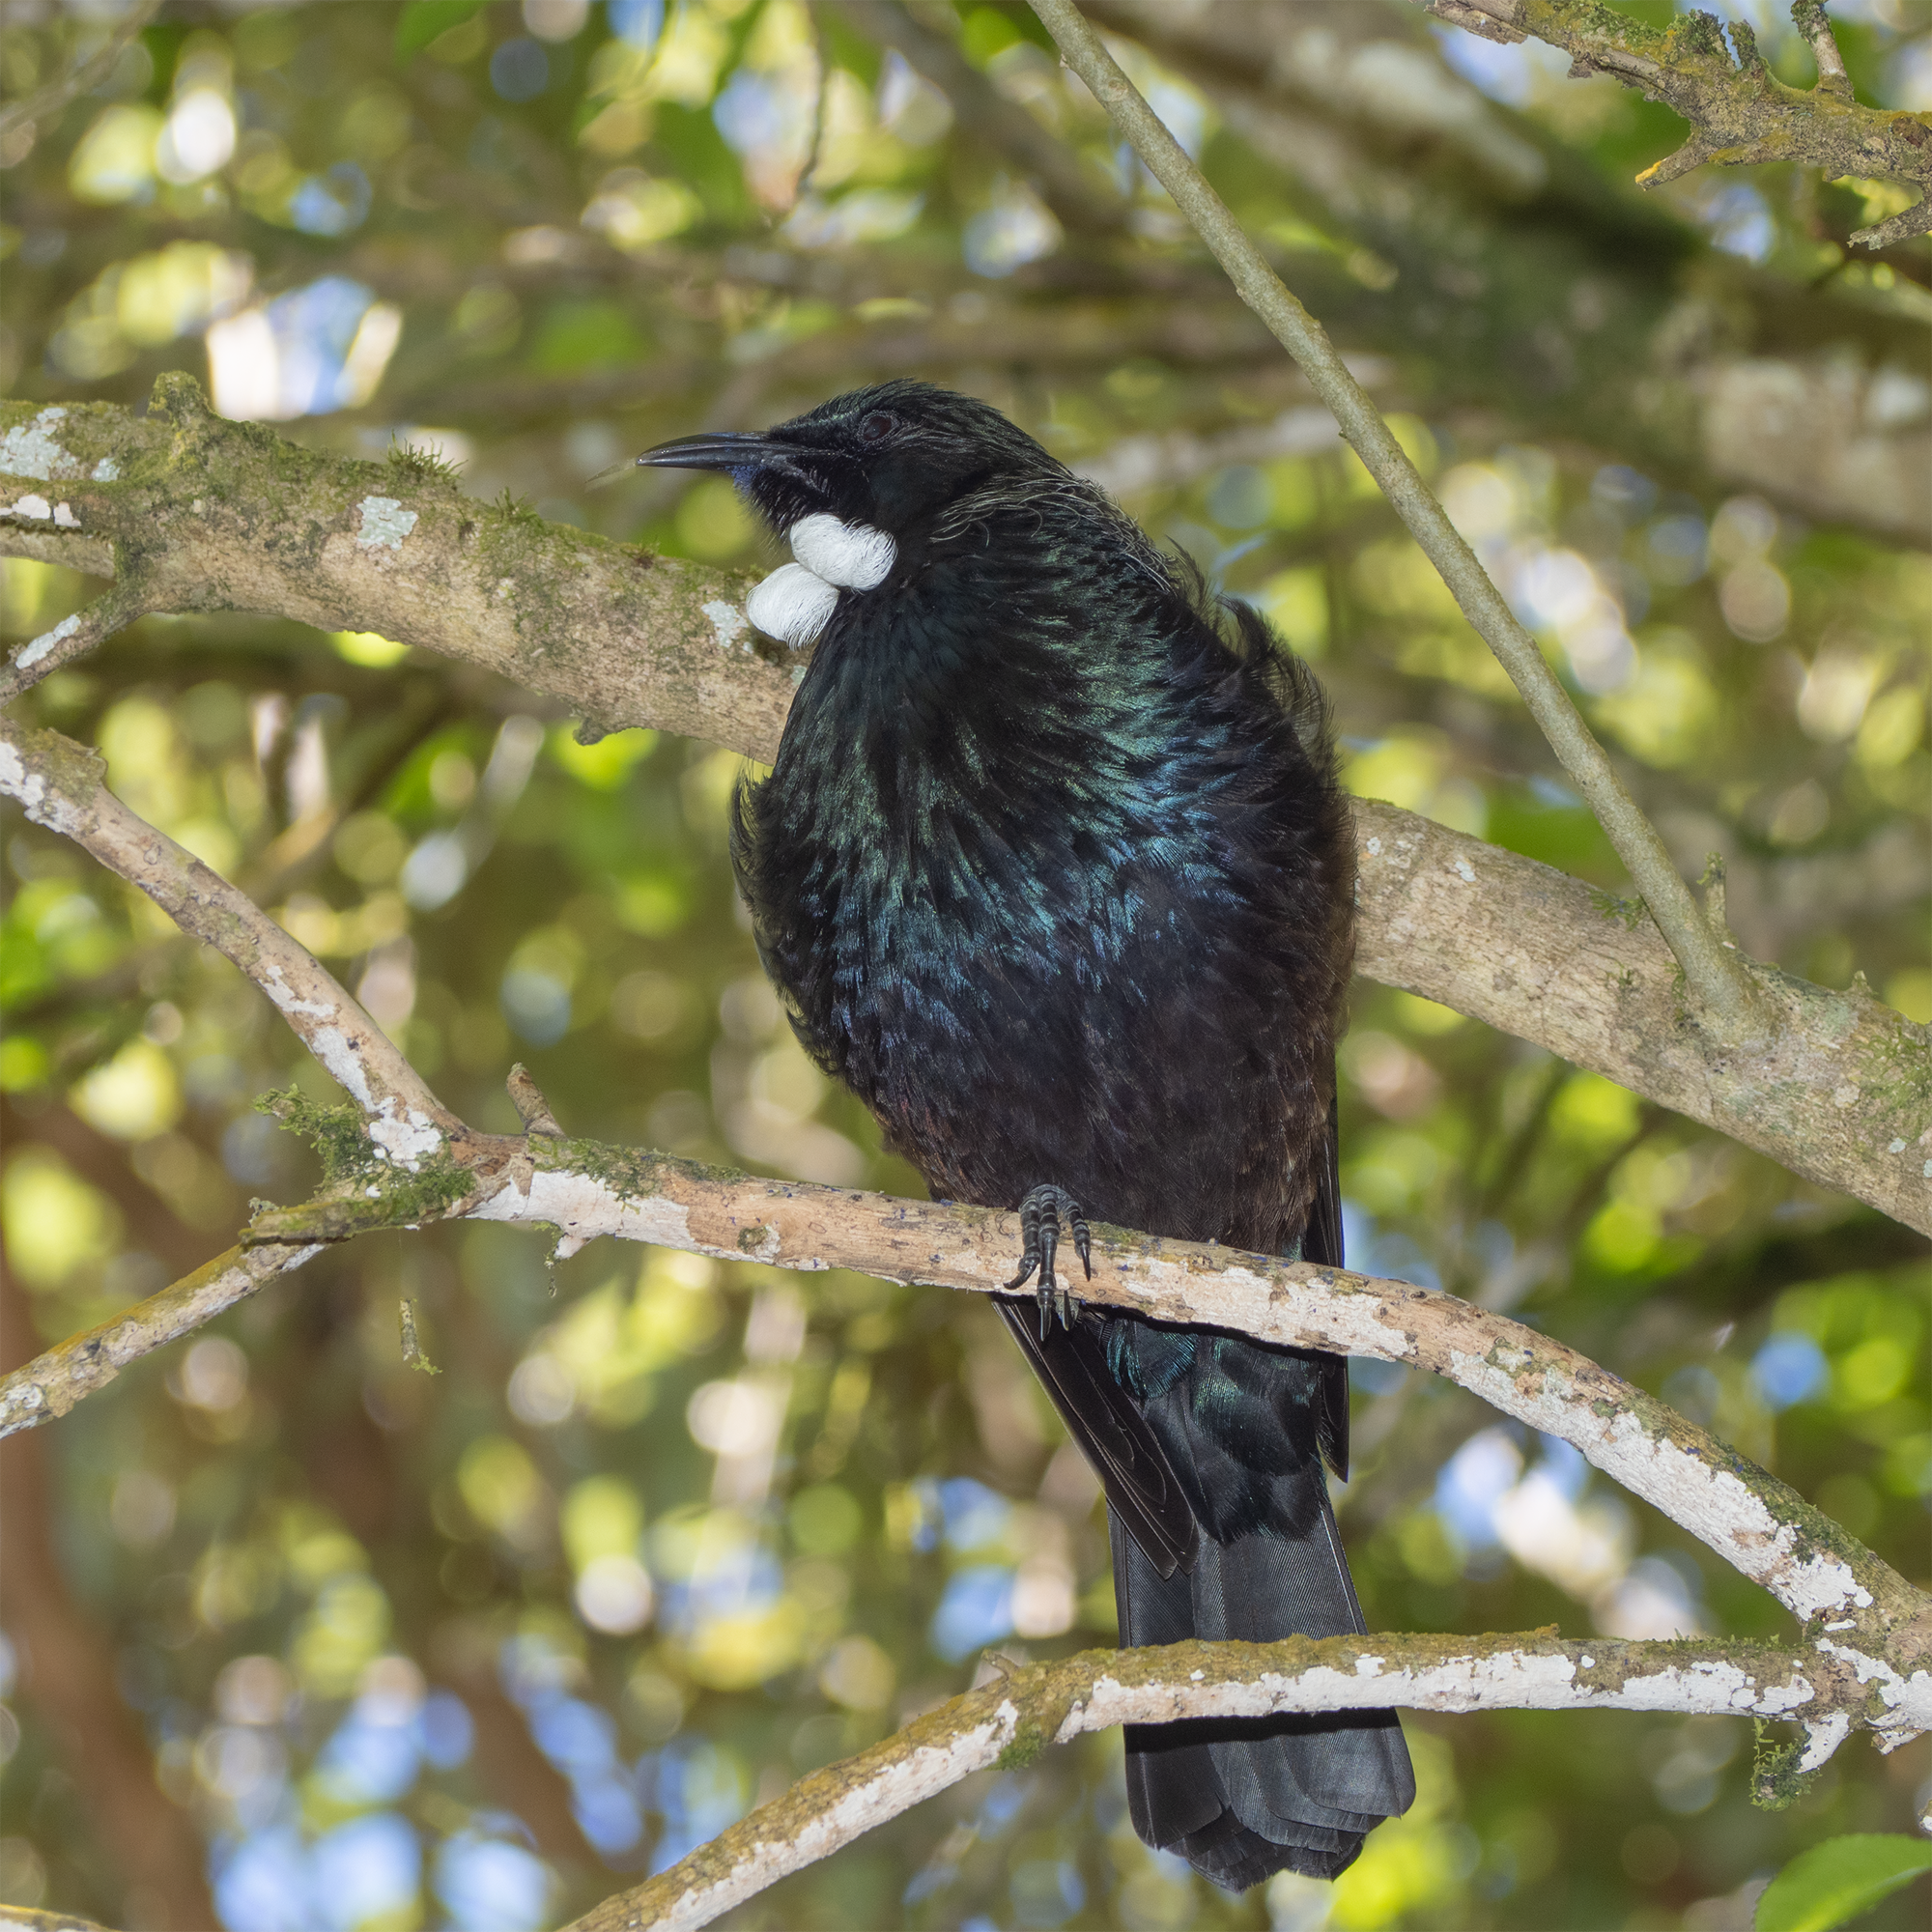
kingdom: Animalia
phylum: Chordata
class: Aves
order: Passeriformes
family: Meliphagidae
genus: Prosthemadera
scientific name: Prosthemadera novaeseelandiae
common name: Tui
